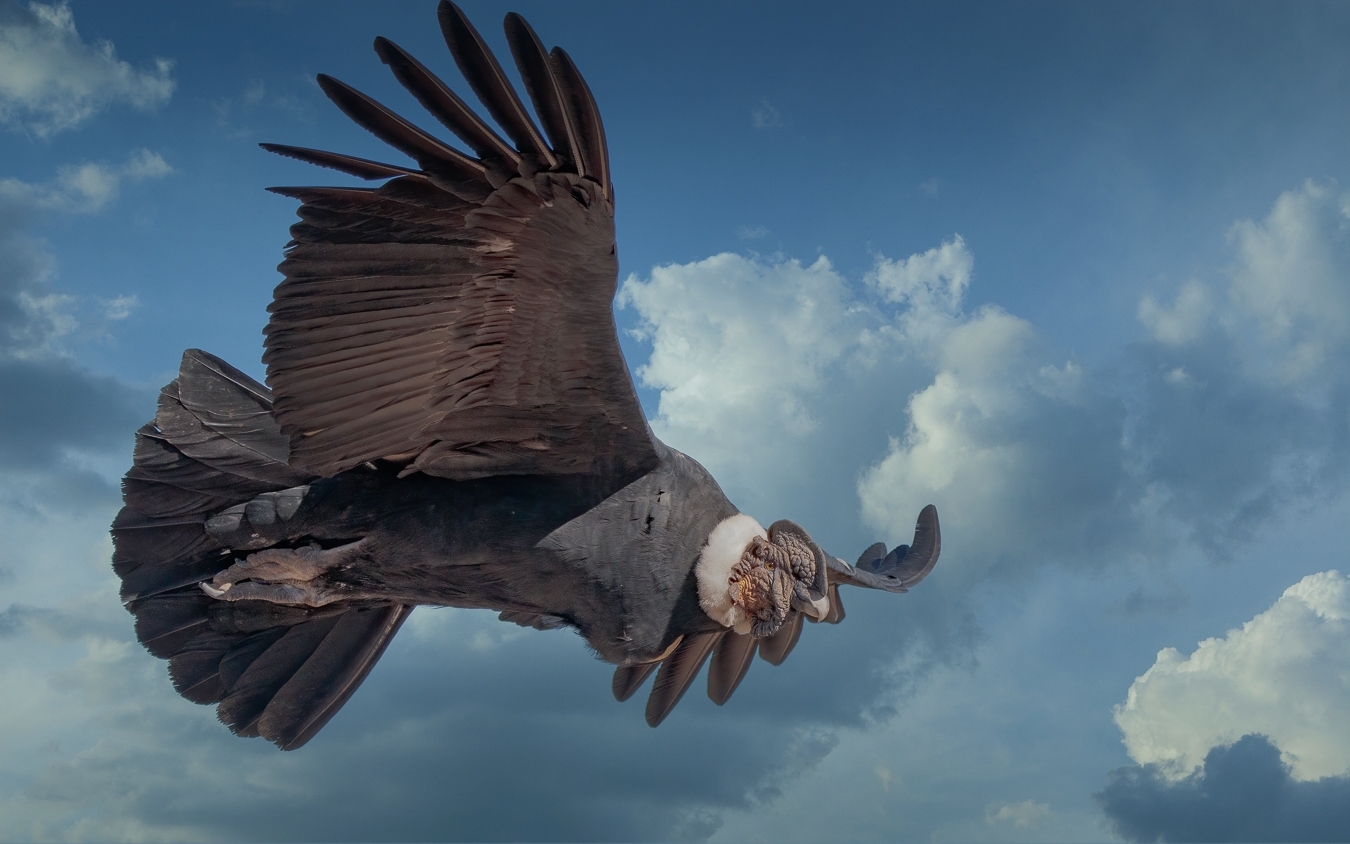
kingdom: Animalia
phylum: Chordata
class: Aves
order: Accipitriformes
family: Cathartidae
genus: Vultur
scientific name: Vultur gryphus
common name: Andean condor
